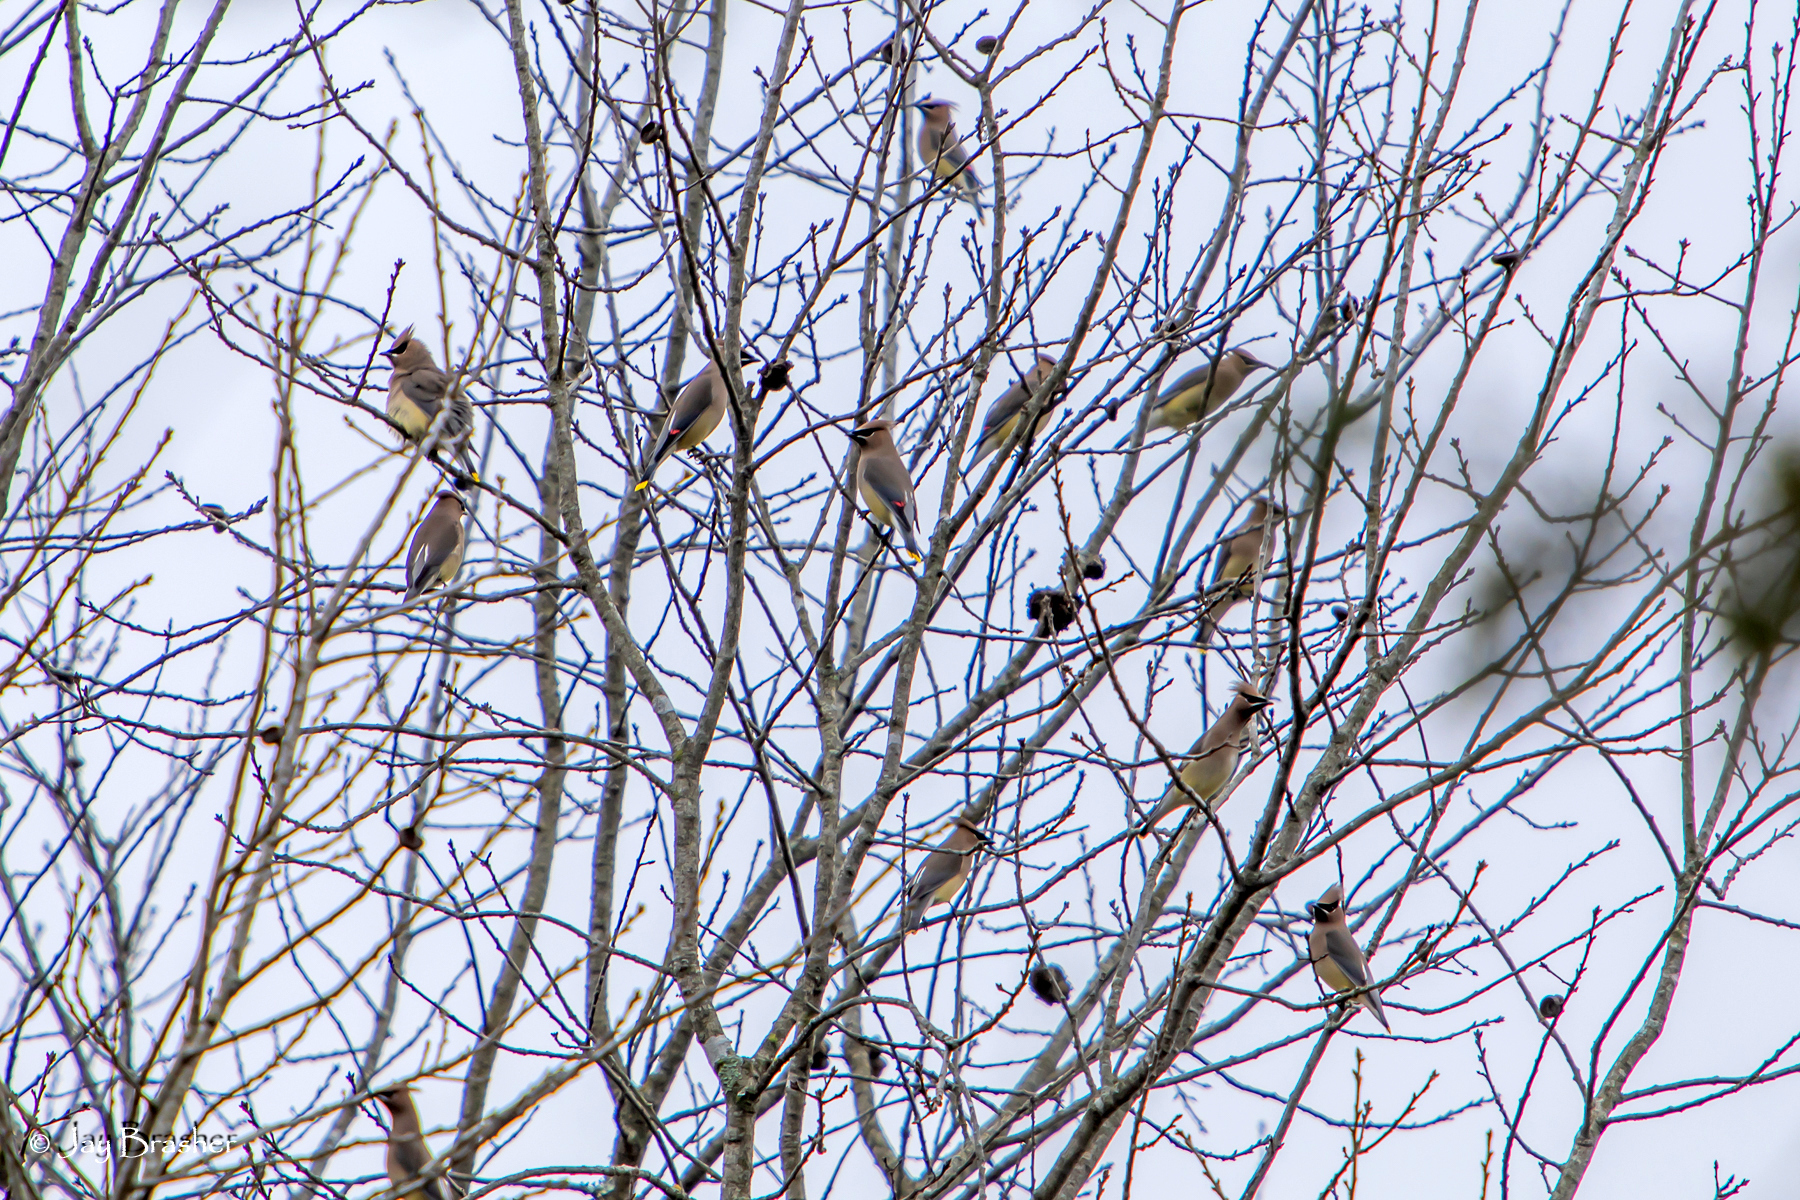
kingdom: Animalia
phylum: Chordata
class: Aves
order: Passeriformes
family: Bombycillidae
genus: Bombycilla
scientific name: Bombycilla cedrorum
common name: Cedar waxwing
